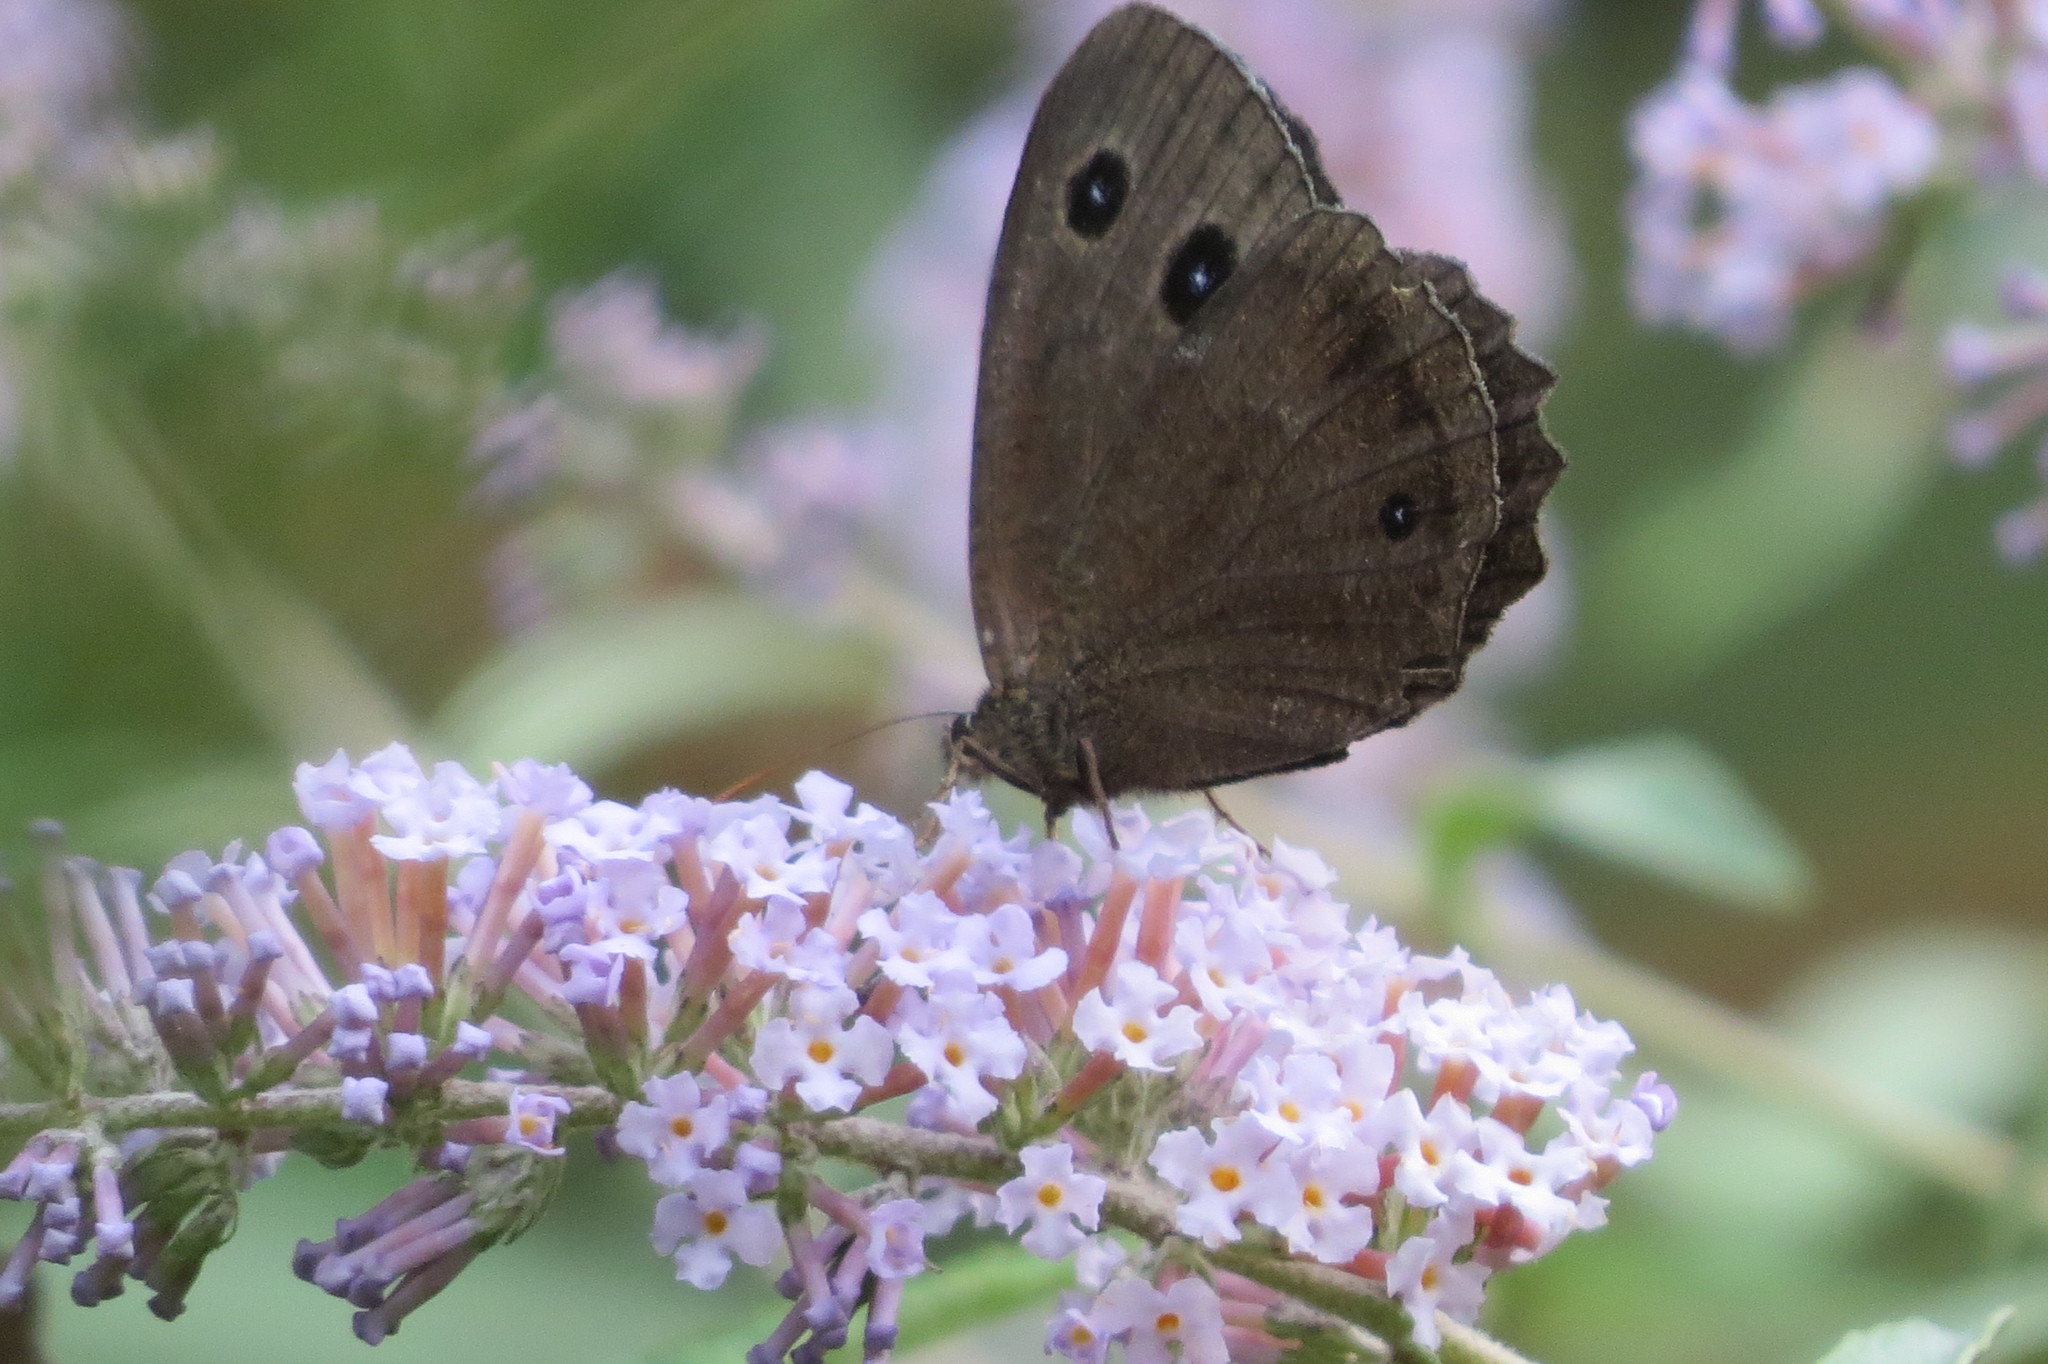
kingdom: Animalia
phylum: Arthropoda
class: Insecta
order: Lepidoptera
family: Nymphalidae
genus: Minois
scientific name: Minois dryas
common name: Dryad
